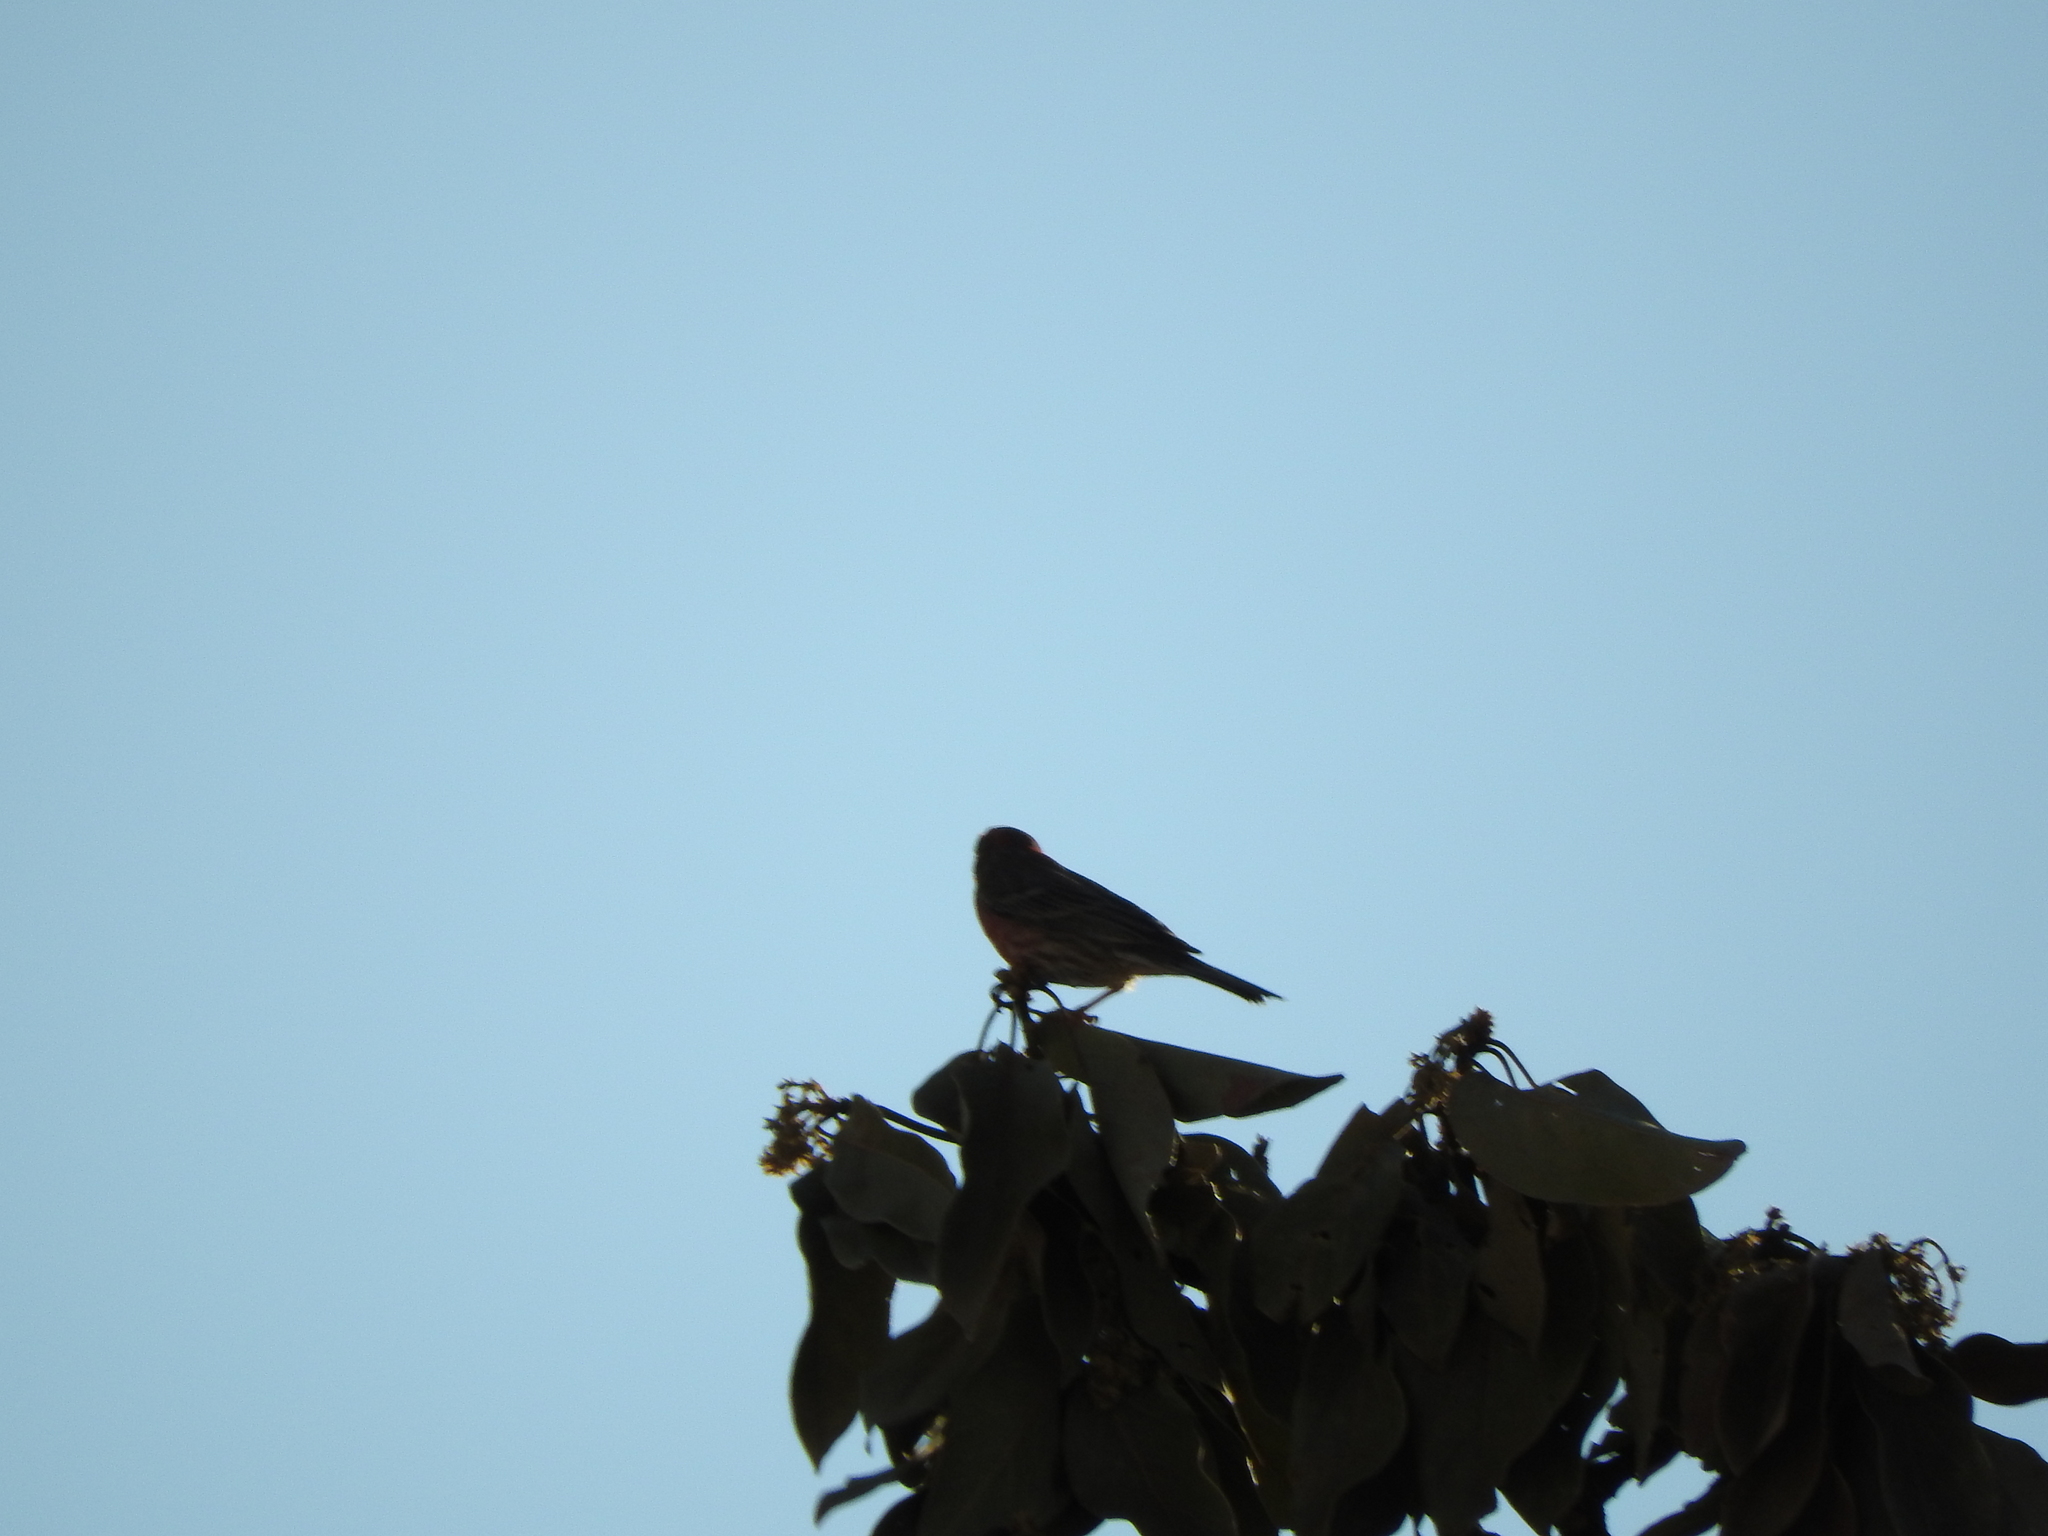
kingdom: Animalia
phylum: Chordata
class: Aves
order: Passeriformes
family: Fringillidae
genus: Haemorhous
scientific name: Haemorhous mexicanus
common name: House finch
